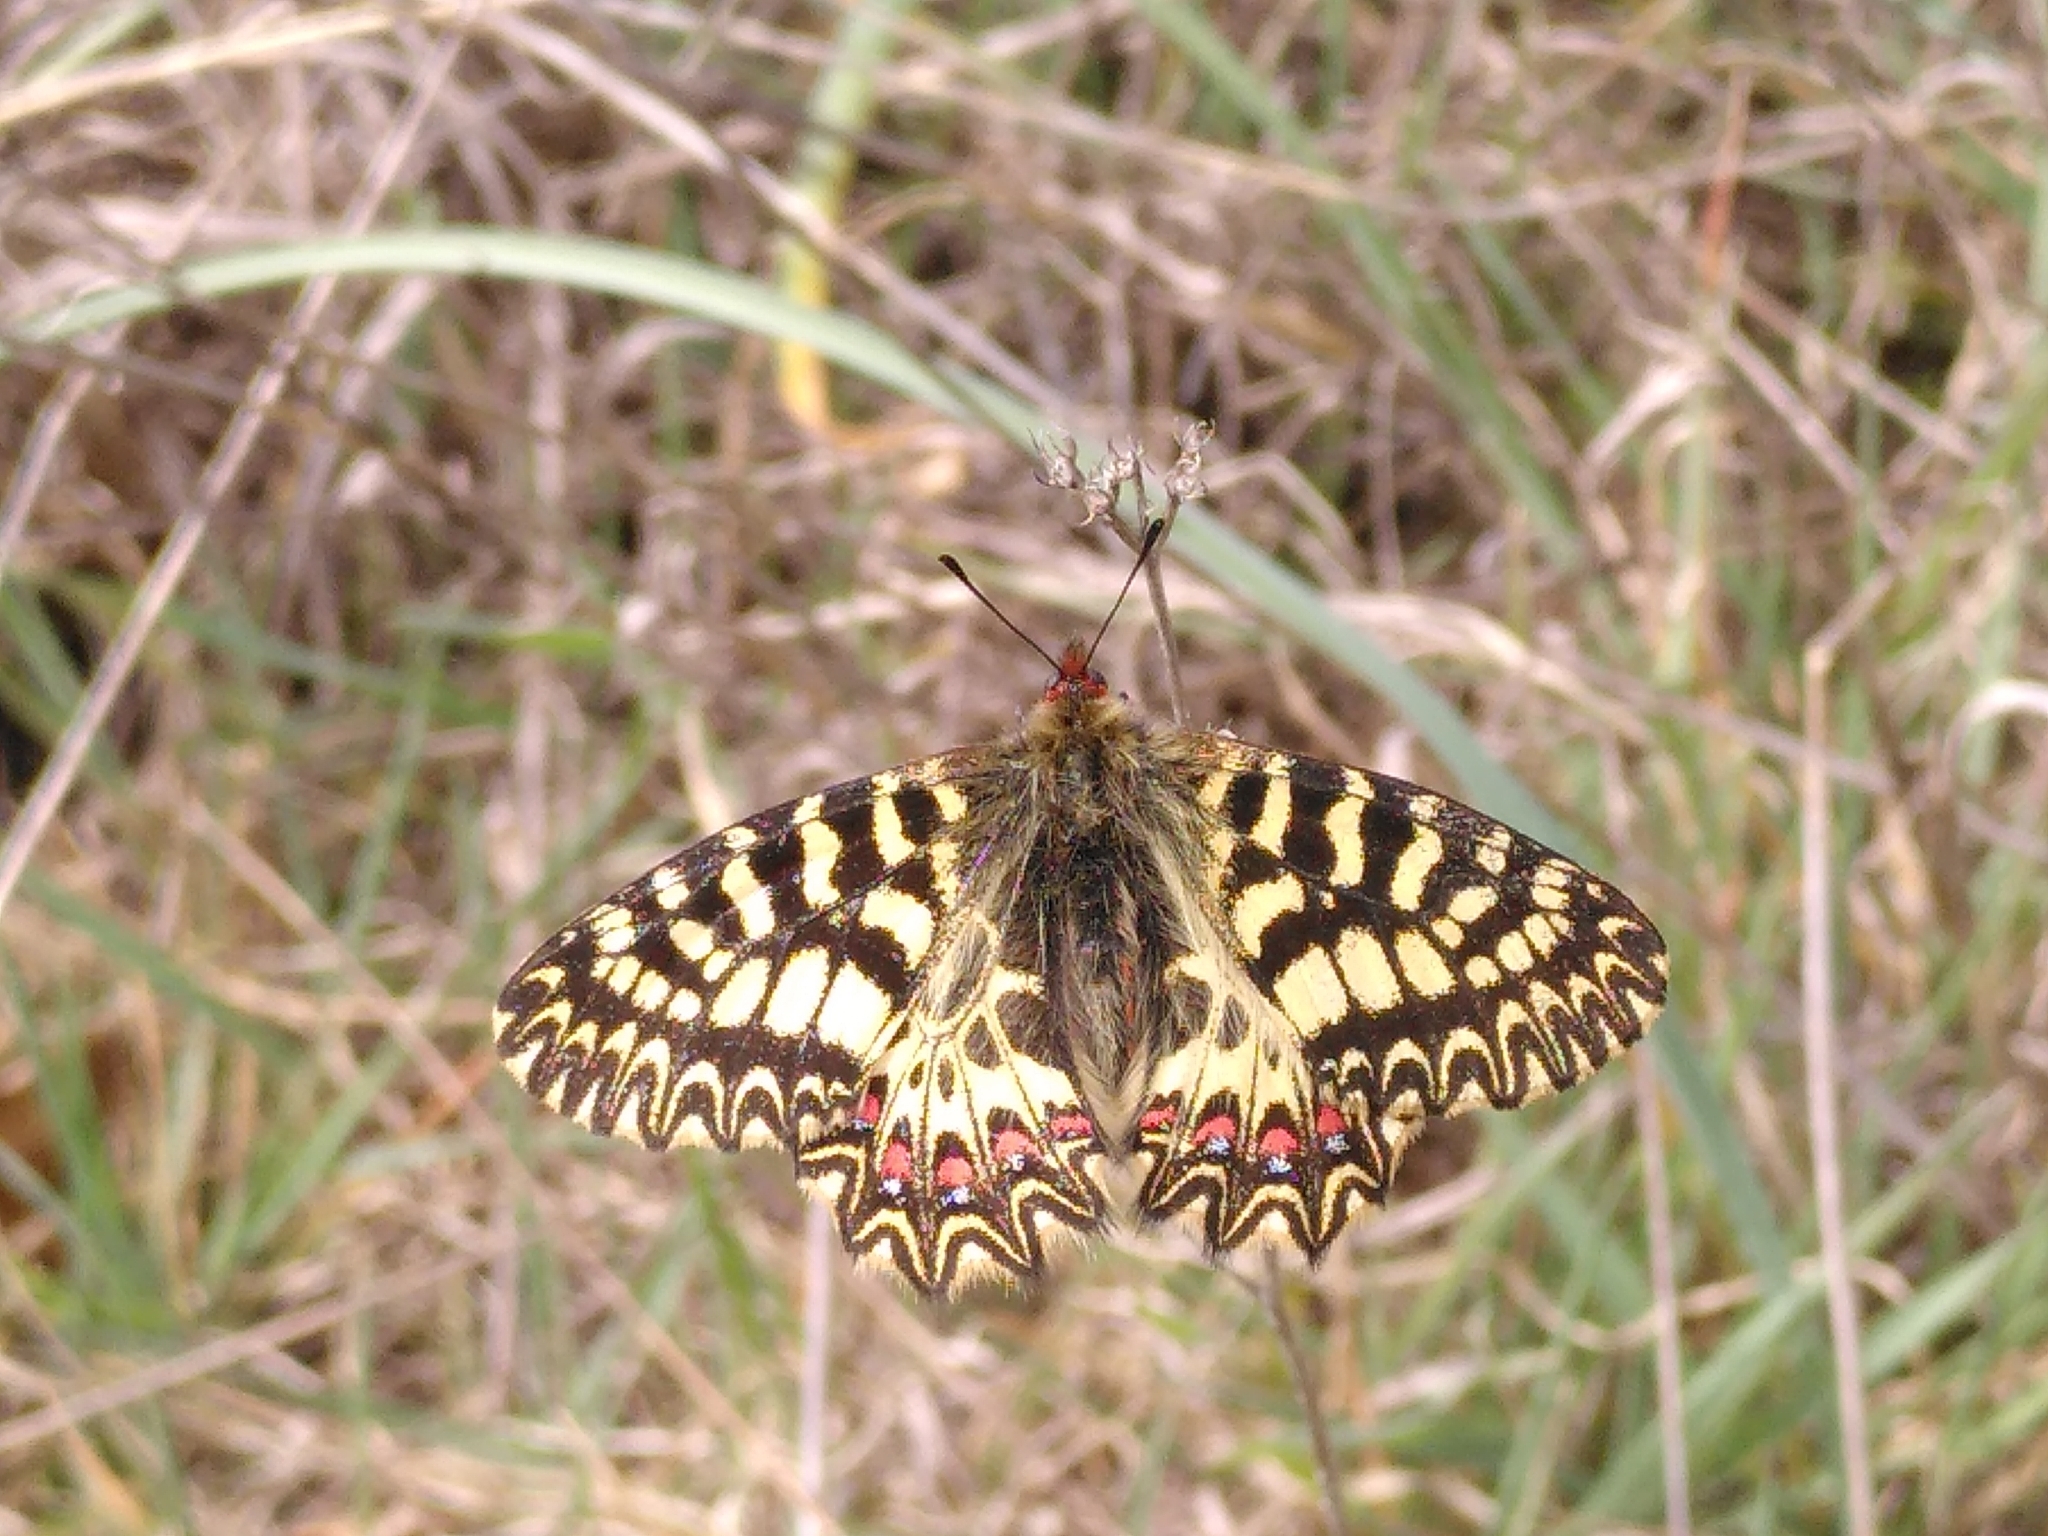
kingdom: Animalia
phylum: Arthropoda
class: Insecta
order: Lepidoptera
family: Papilionidae
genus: Zerynthia
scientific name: Zerynthia polyxena
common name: Southern festoon
